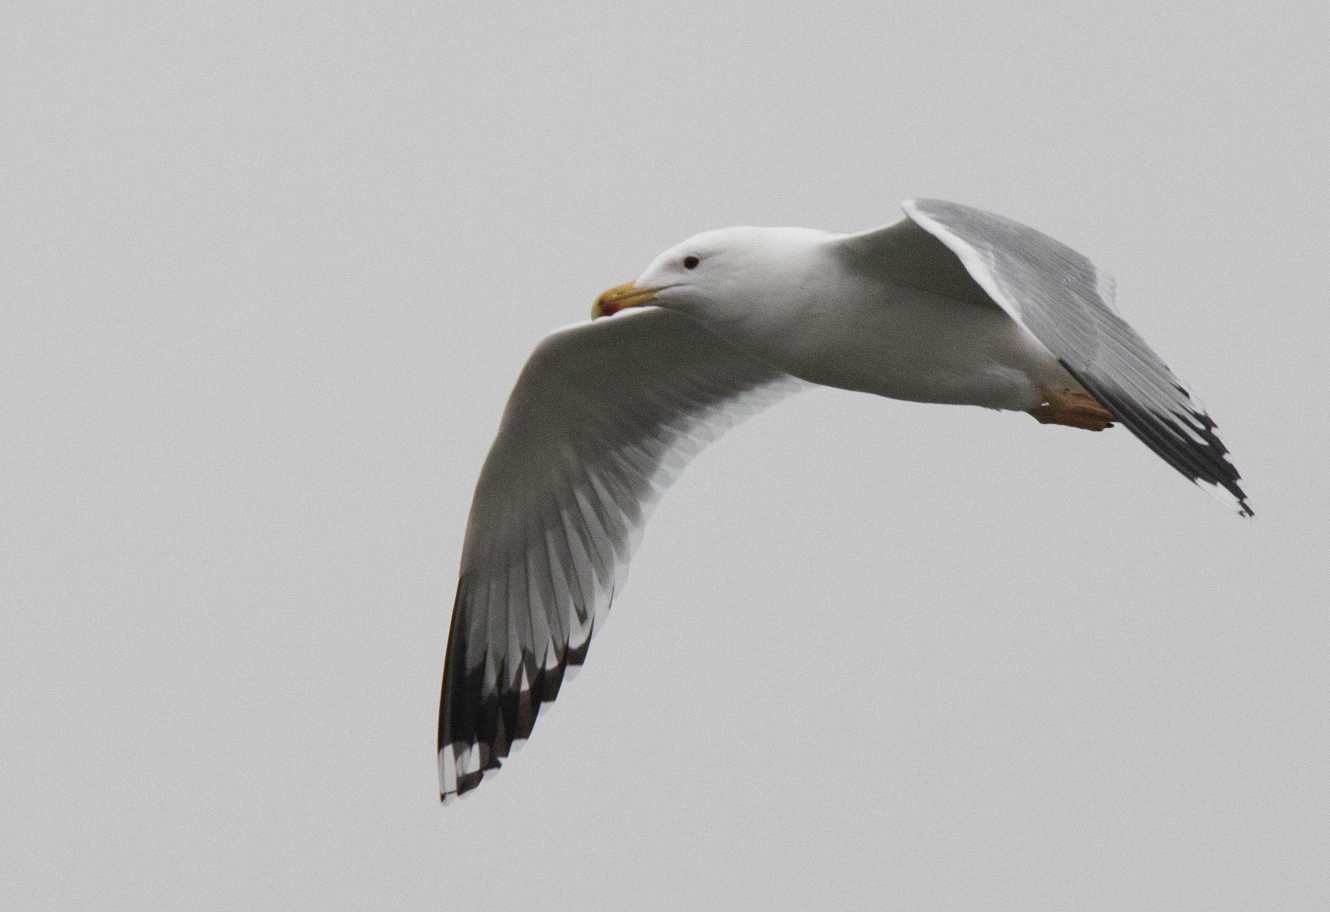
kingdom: Animalia
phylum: Chordata
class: Aves
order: Charadriiformes
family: Laridae
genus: Larus
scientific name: Larus michahellis
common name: Yellow-legged gull
